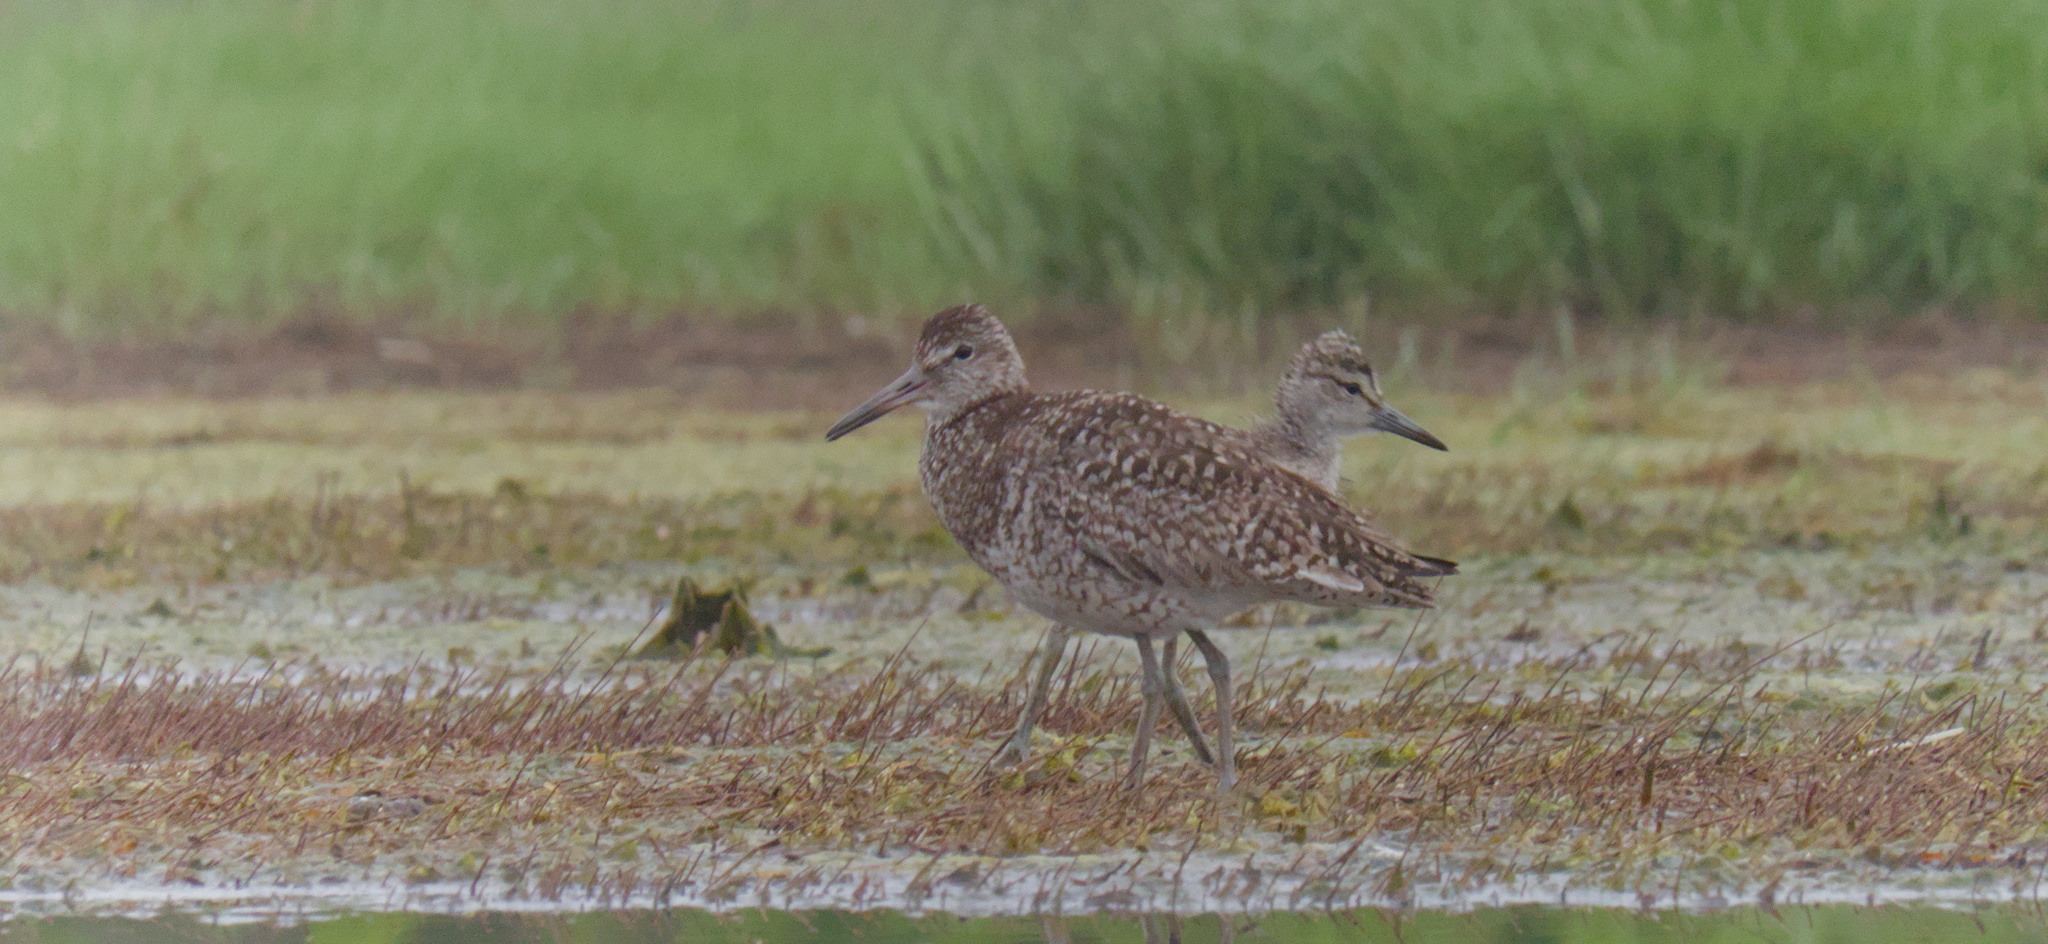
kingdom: Animalia
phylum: Chordata
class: Aves
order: Charadriiformes
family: Scolopacidae
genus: Tringa
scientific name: Tringa semipalmata
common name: Willet
